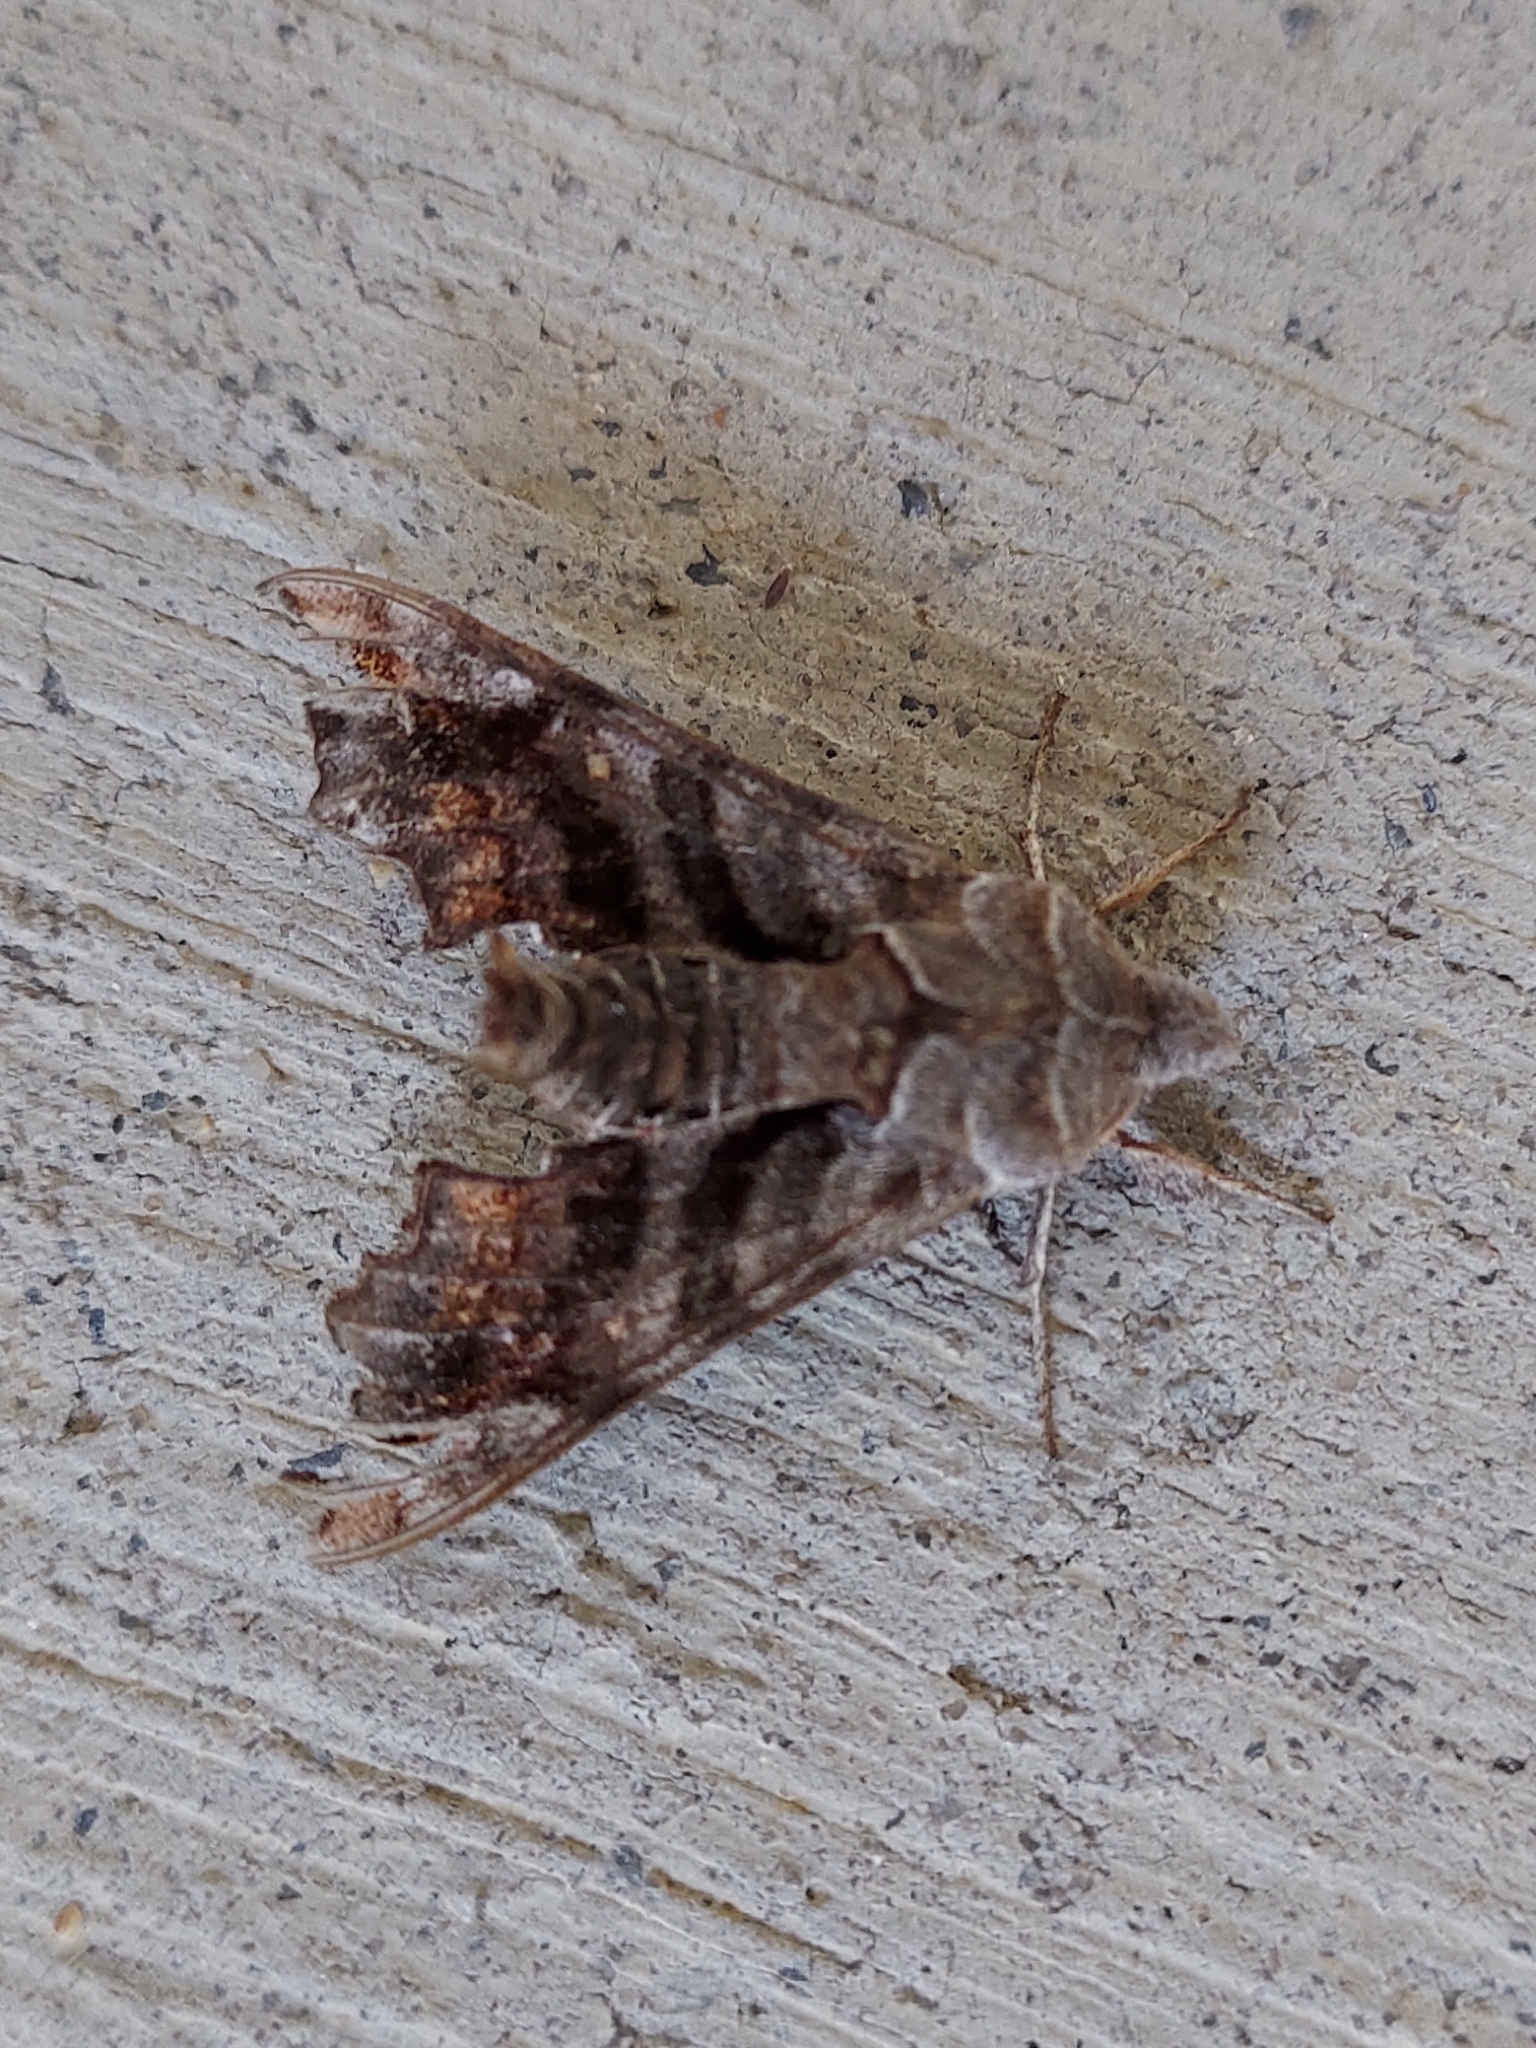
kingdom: Animalia
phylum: Arthropoda
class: Insecta
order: Lepidoptera
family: Sphingidae
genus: Deidamia
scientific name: Deidamia inscriptum
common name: Lettered sphinx
